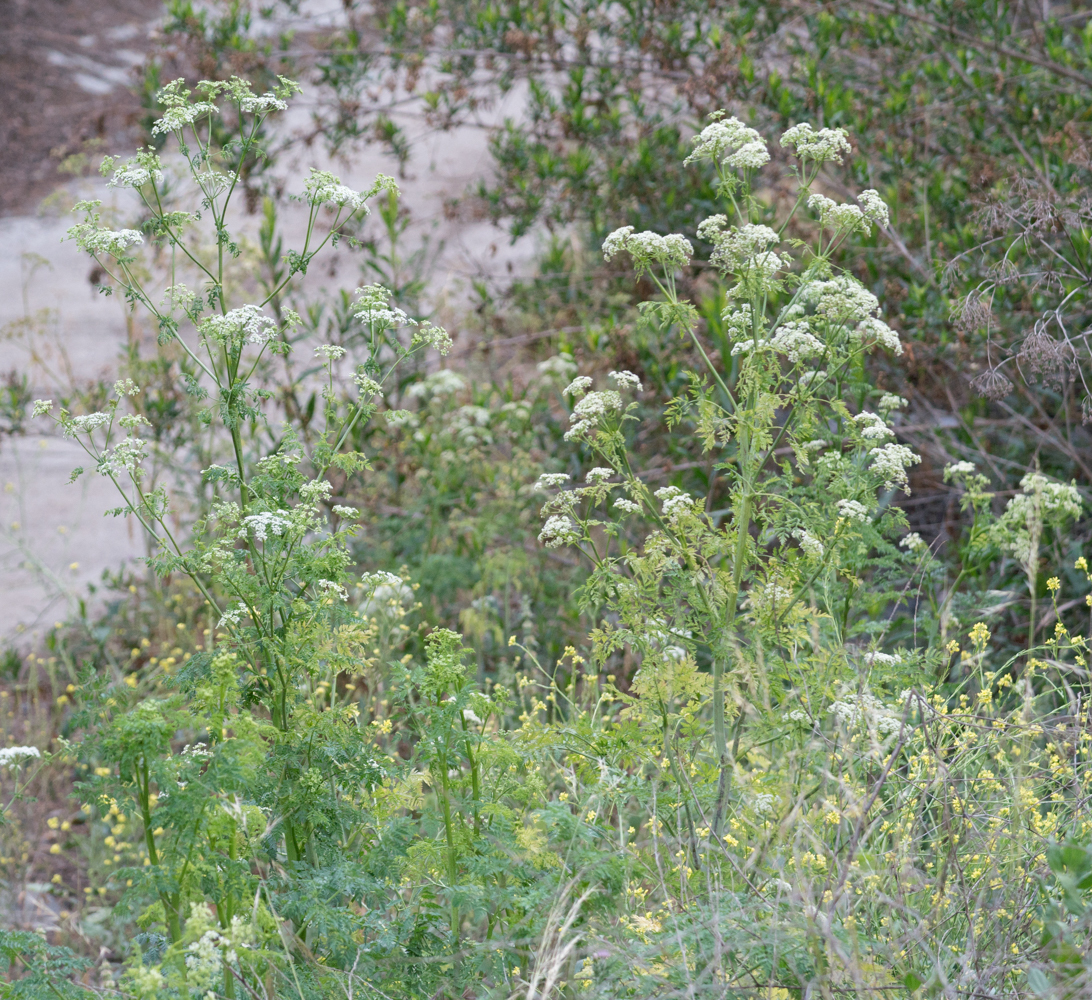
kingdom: Plantae
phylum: Tracheophyta
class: Magnoliopsida
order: Apiales
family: Apiaceae
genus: Conium
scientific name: Conium maculatum
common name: Hemlock
